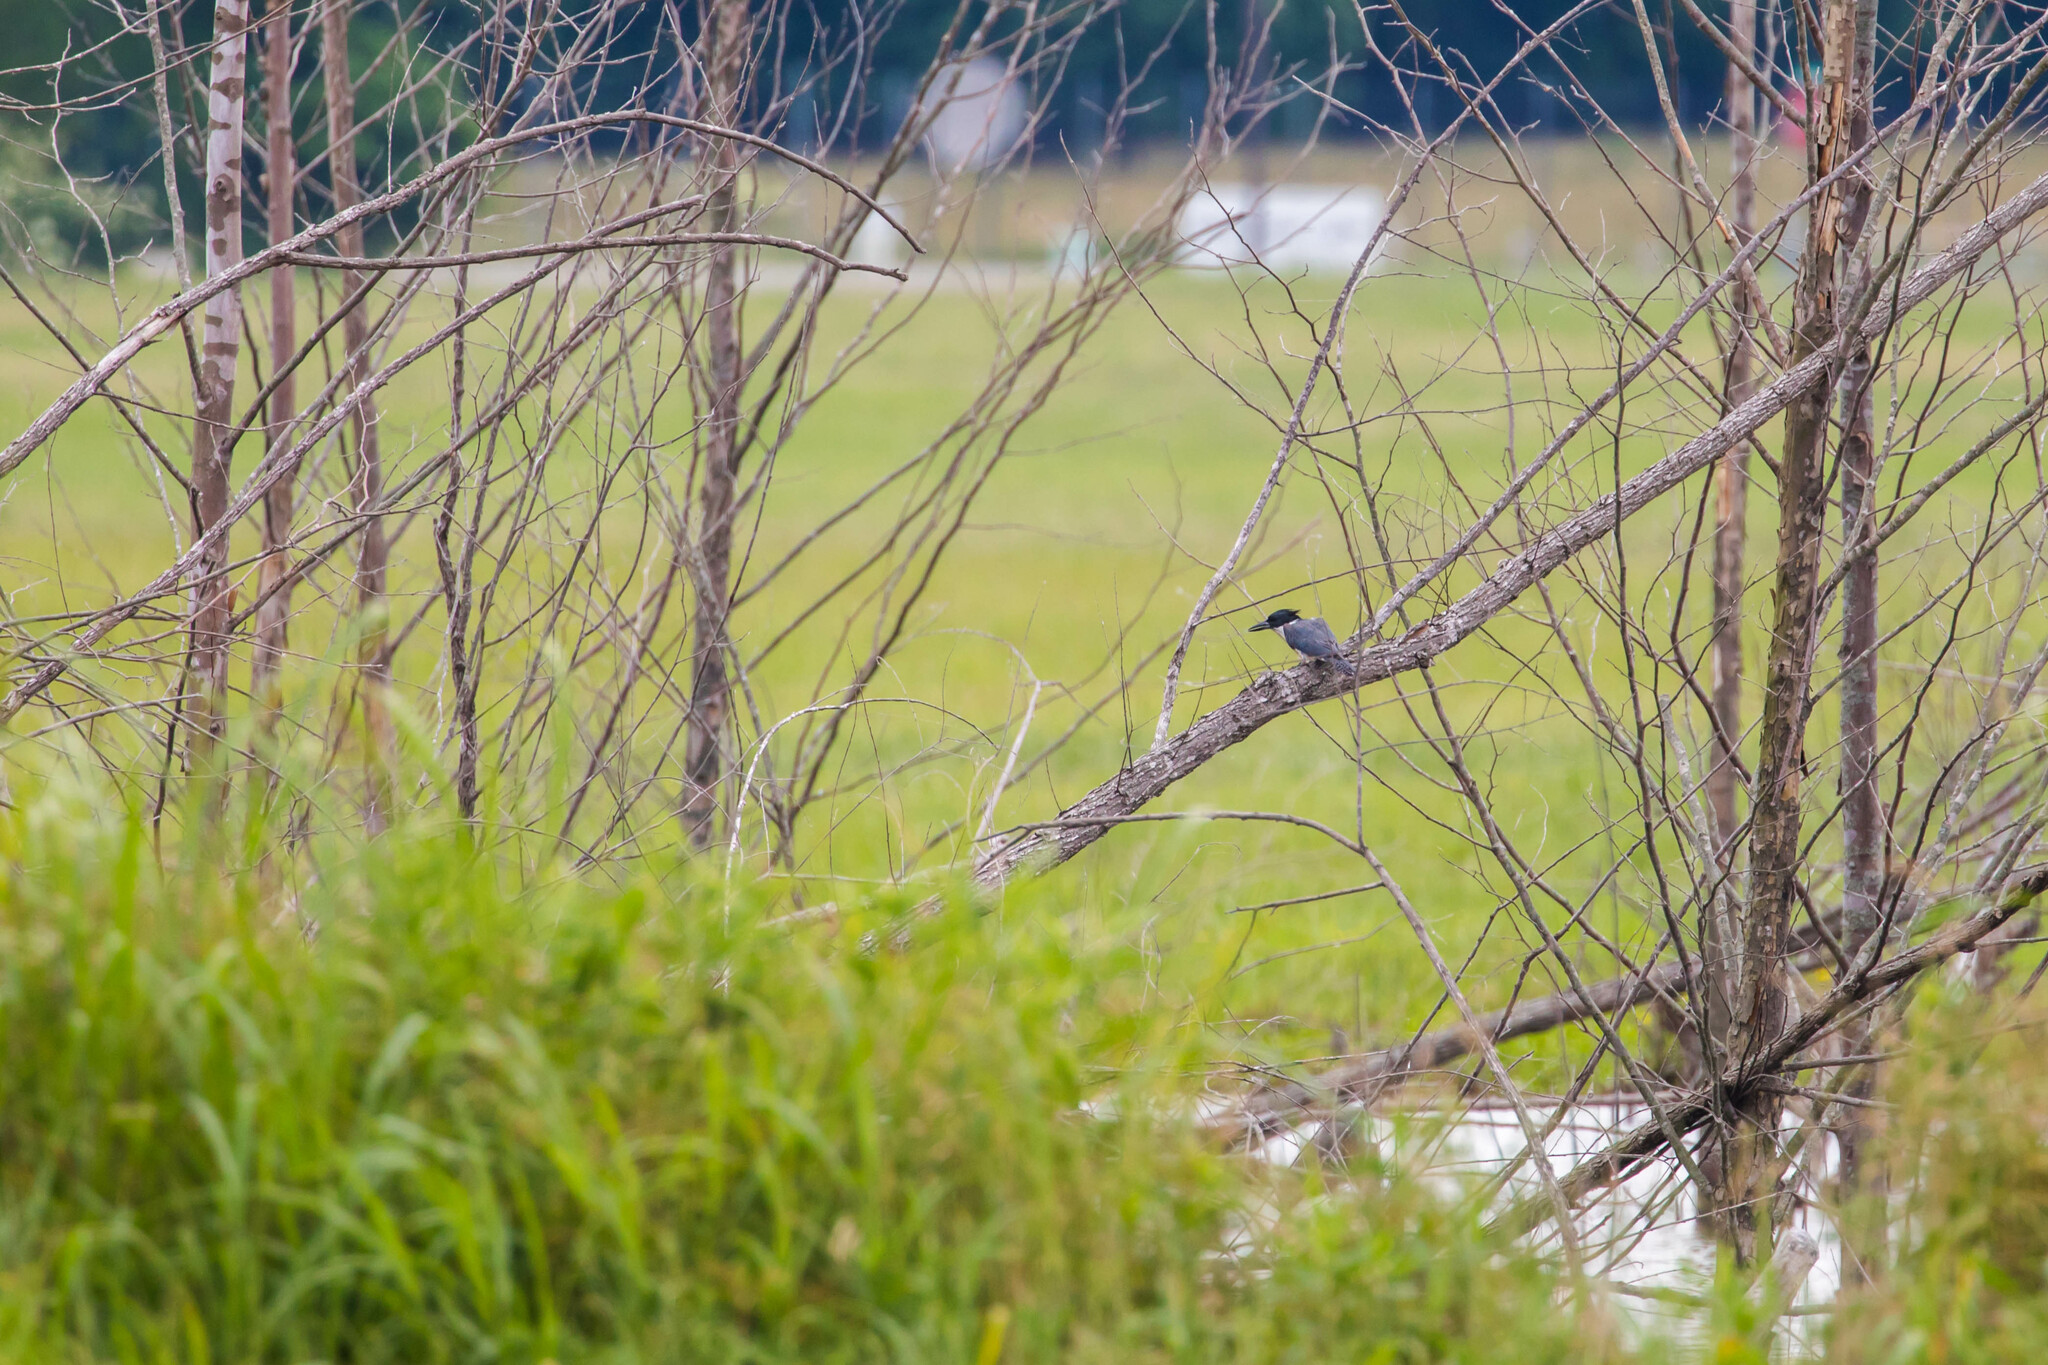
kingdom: Animalia
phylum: Chordata
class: Aves
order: Coraciiformes
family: Alcedinidae
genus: Megaceryle
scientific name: Megaceryle alcyon
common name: Belted kingfisher
